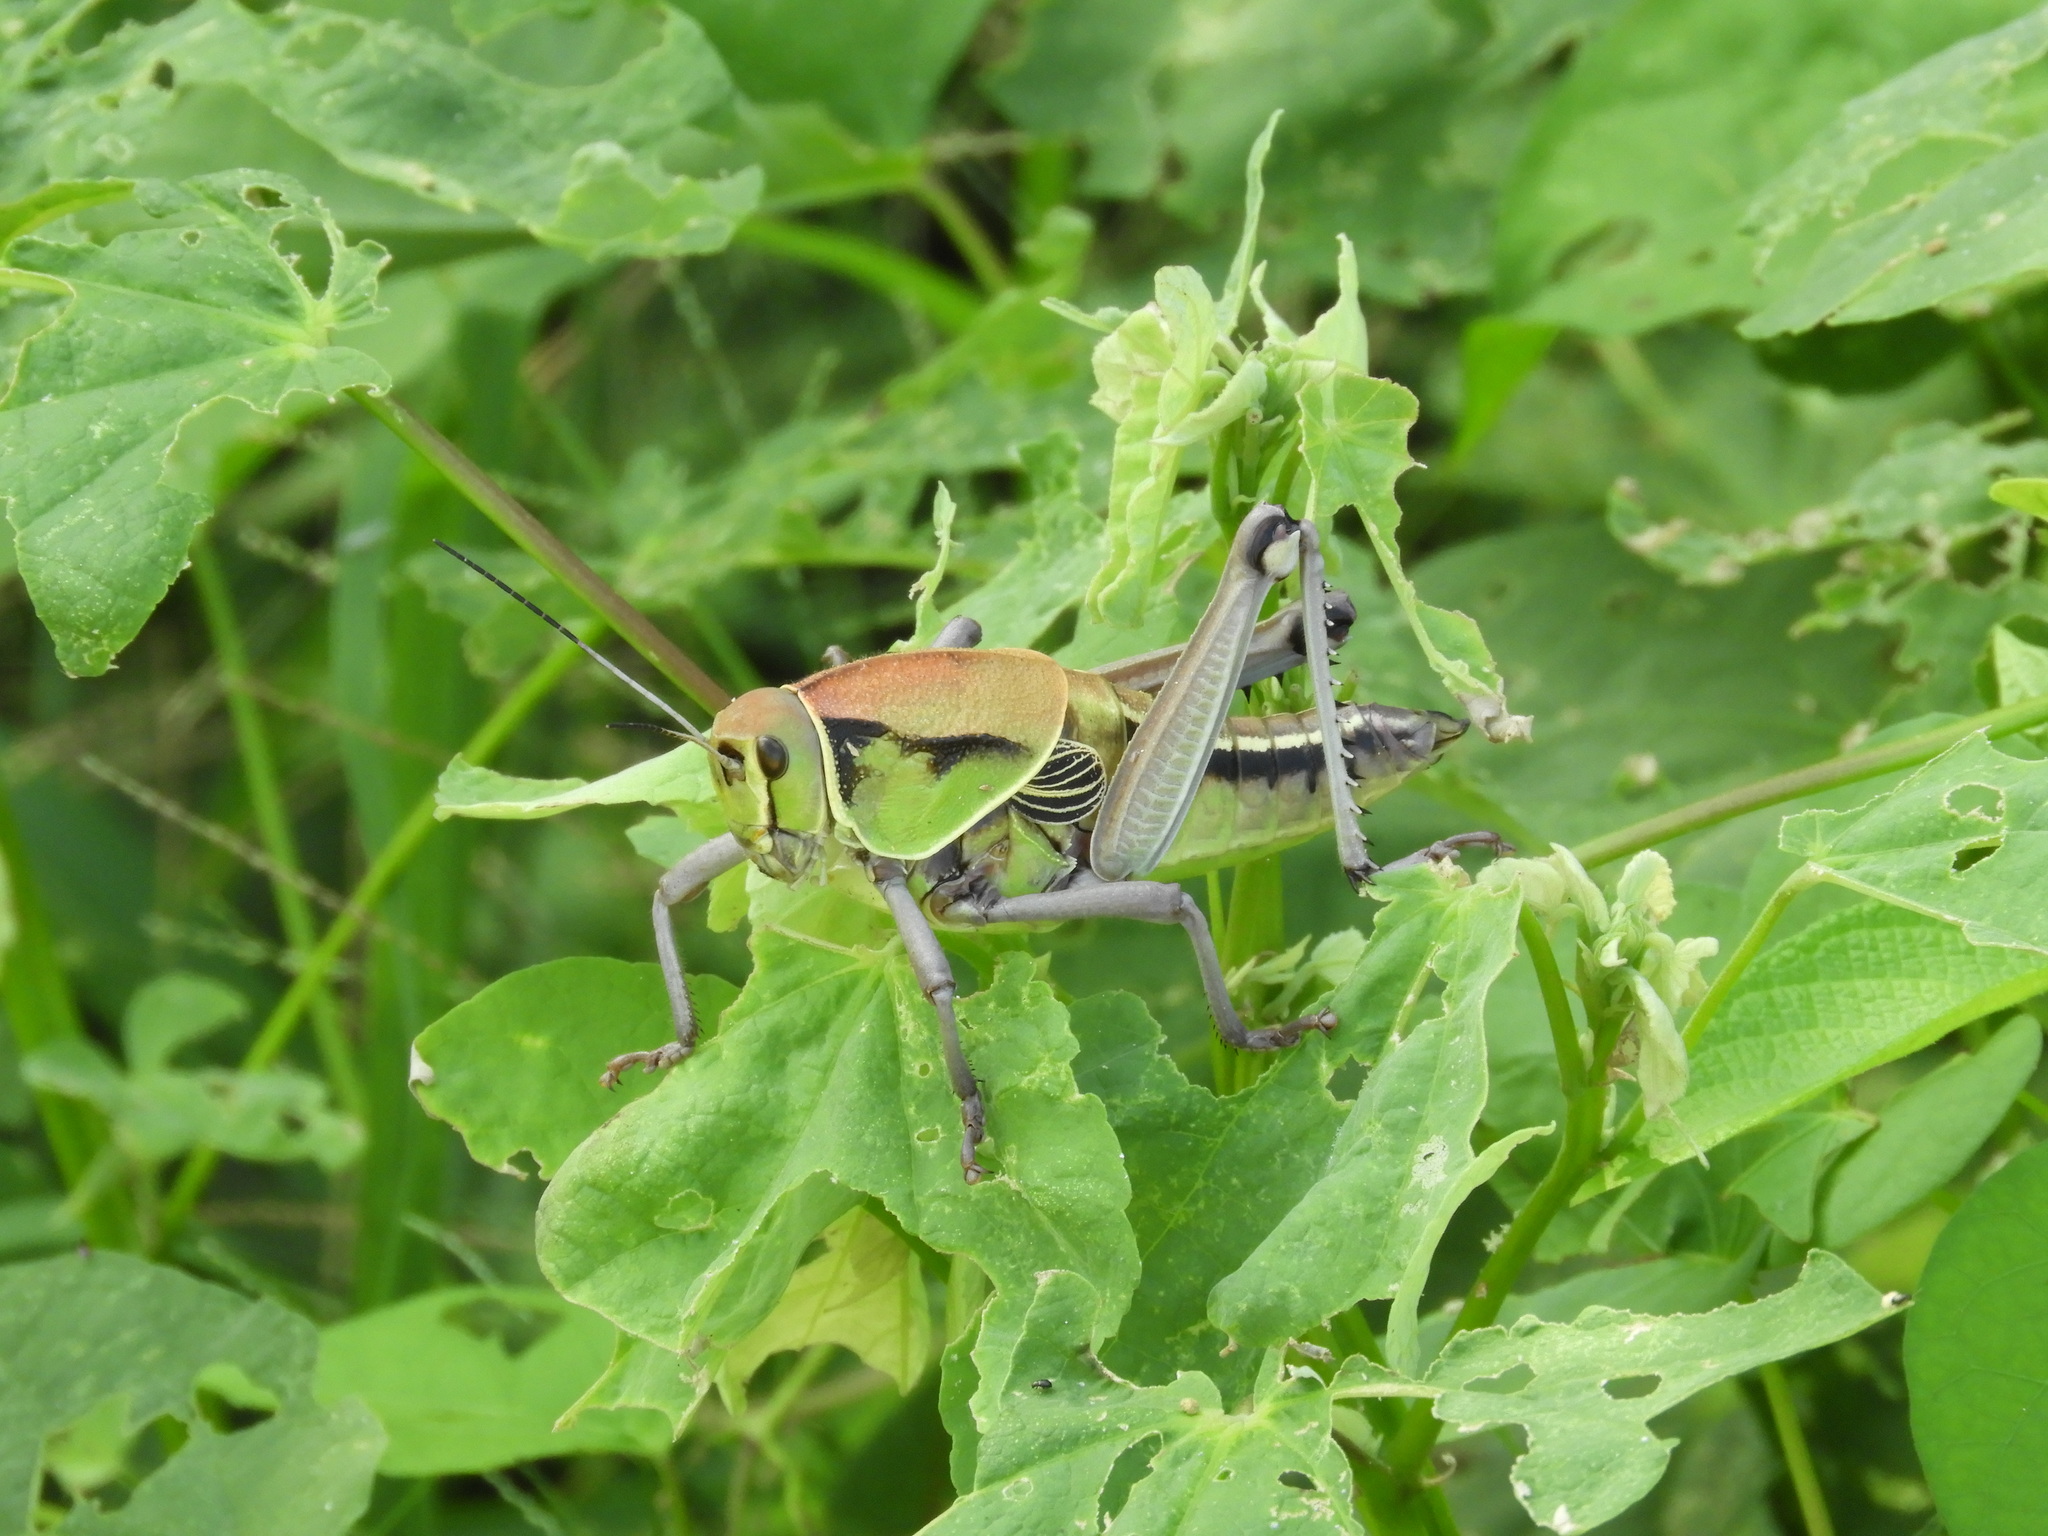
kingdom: Animalia
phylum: Arthropoda
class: Insecta
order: Orthoptera
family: Romaleidae
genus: Brachystola
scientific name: Brachystola behrensii
